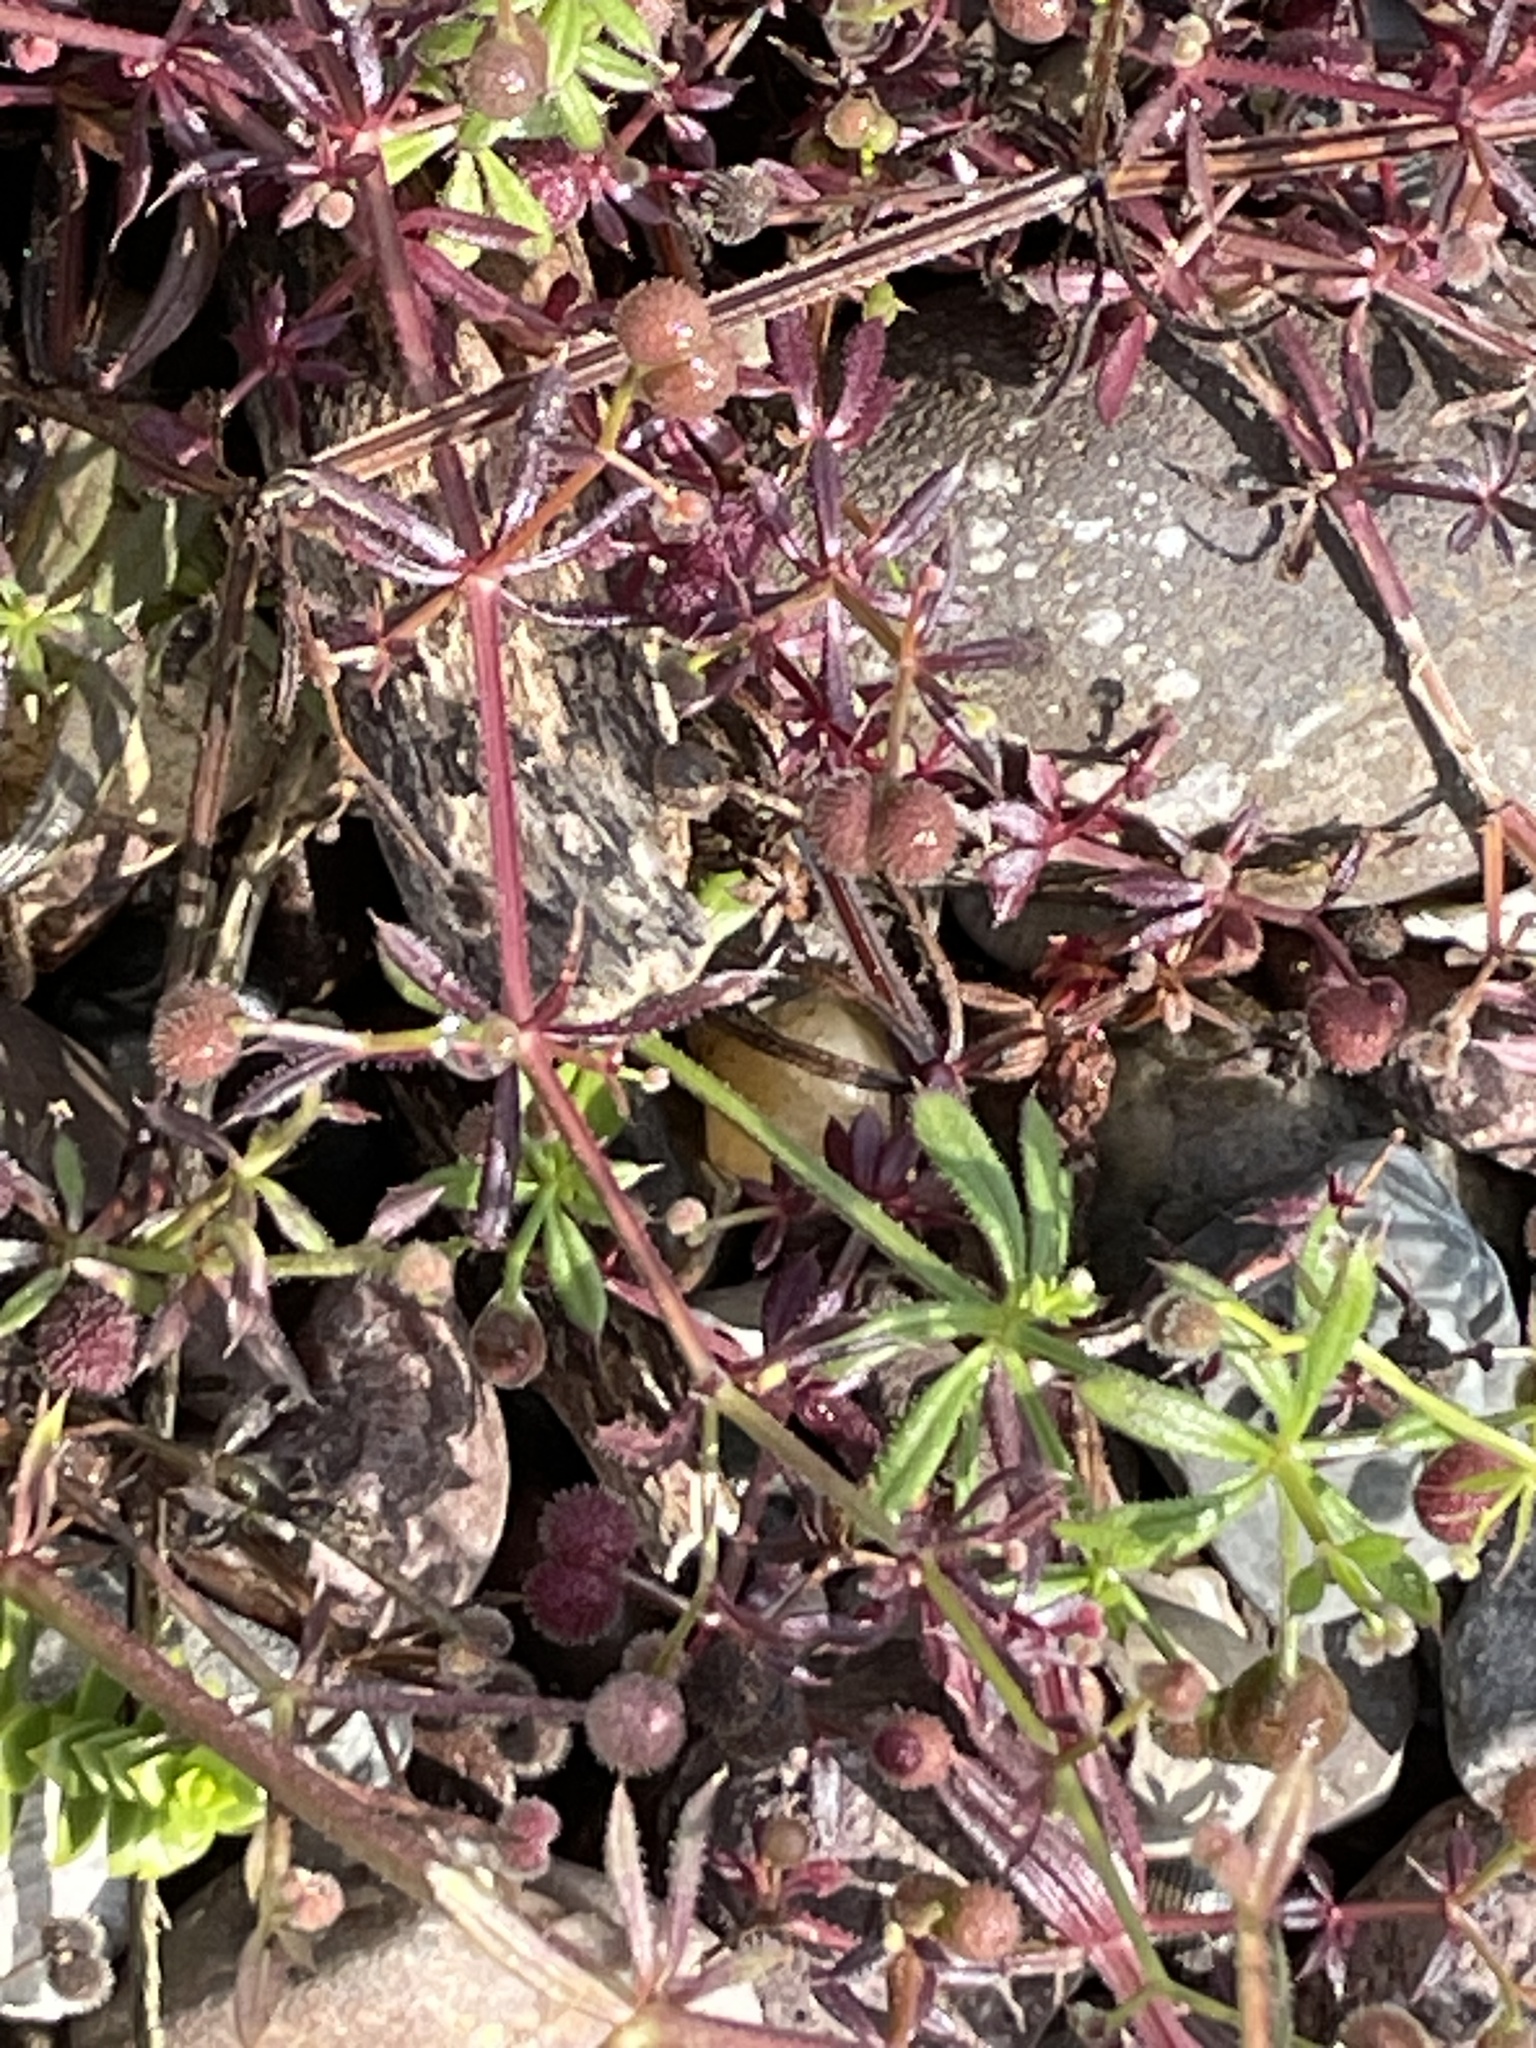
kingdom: Plantae
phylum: Tracheophyta
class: Magnoliopsida
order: Gentianales
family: Rubiaceae
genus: Galium
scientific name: Galium aparine
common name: Cleavers
